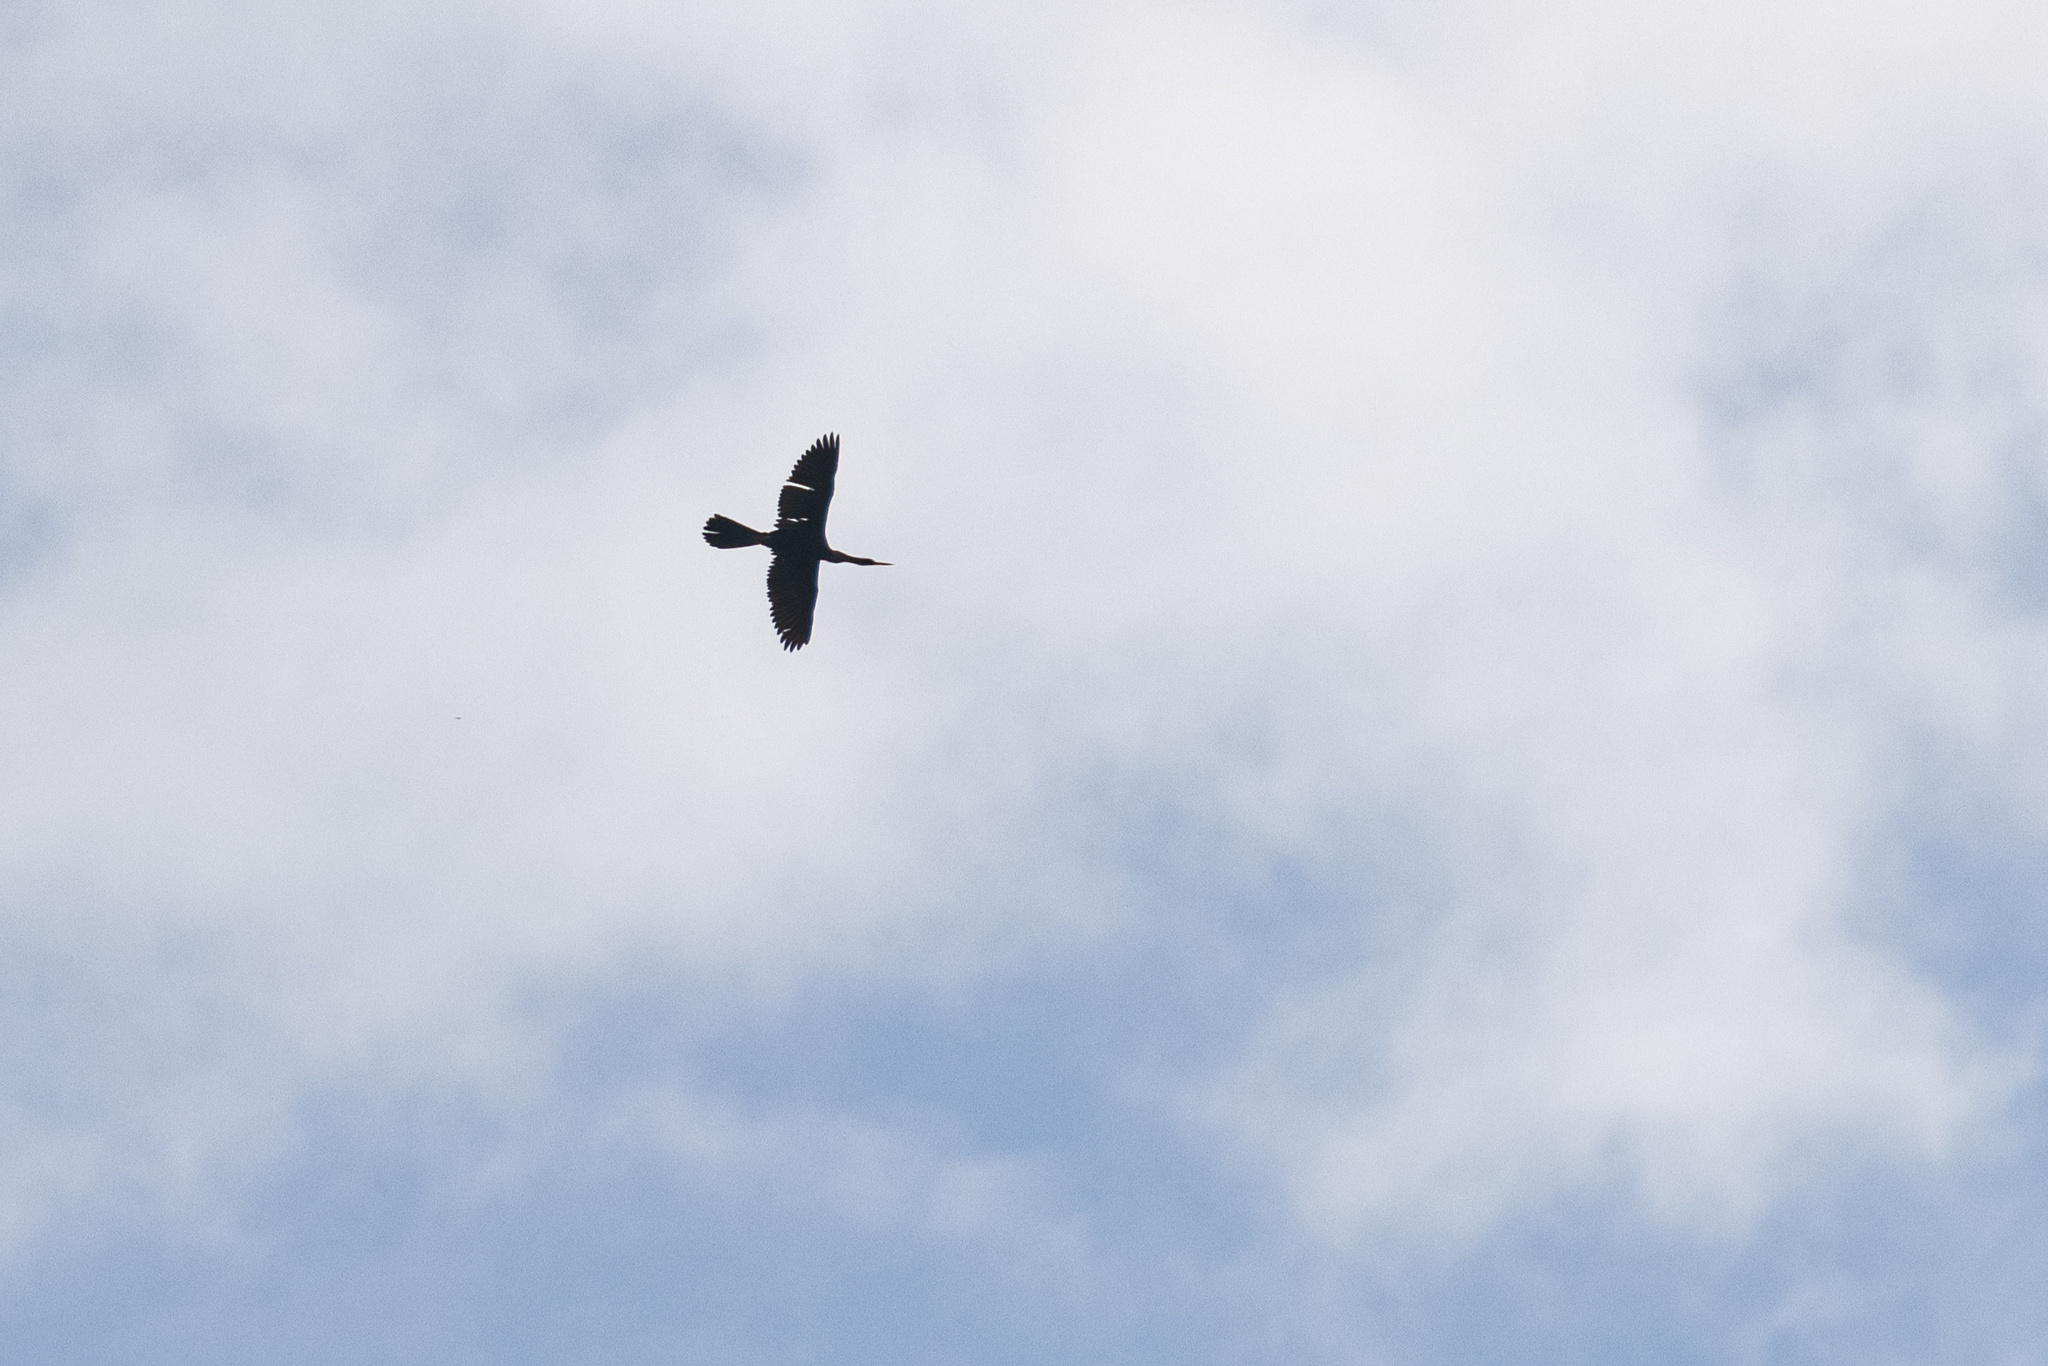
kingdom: Animalia
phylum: Chordata
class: Aves
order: Suliformes
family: Anhingidae
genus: Anhinga
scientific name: Anhinga anhinga
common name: Anhinga
